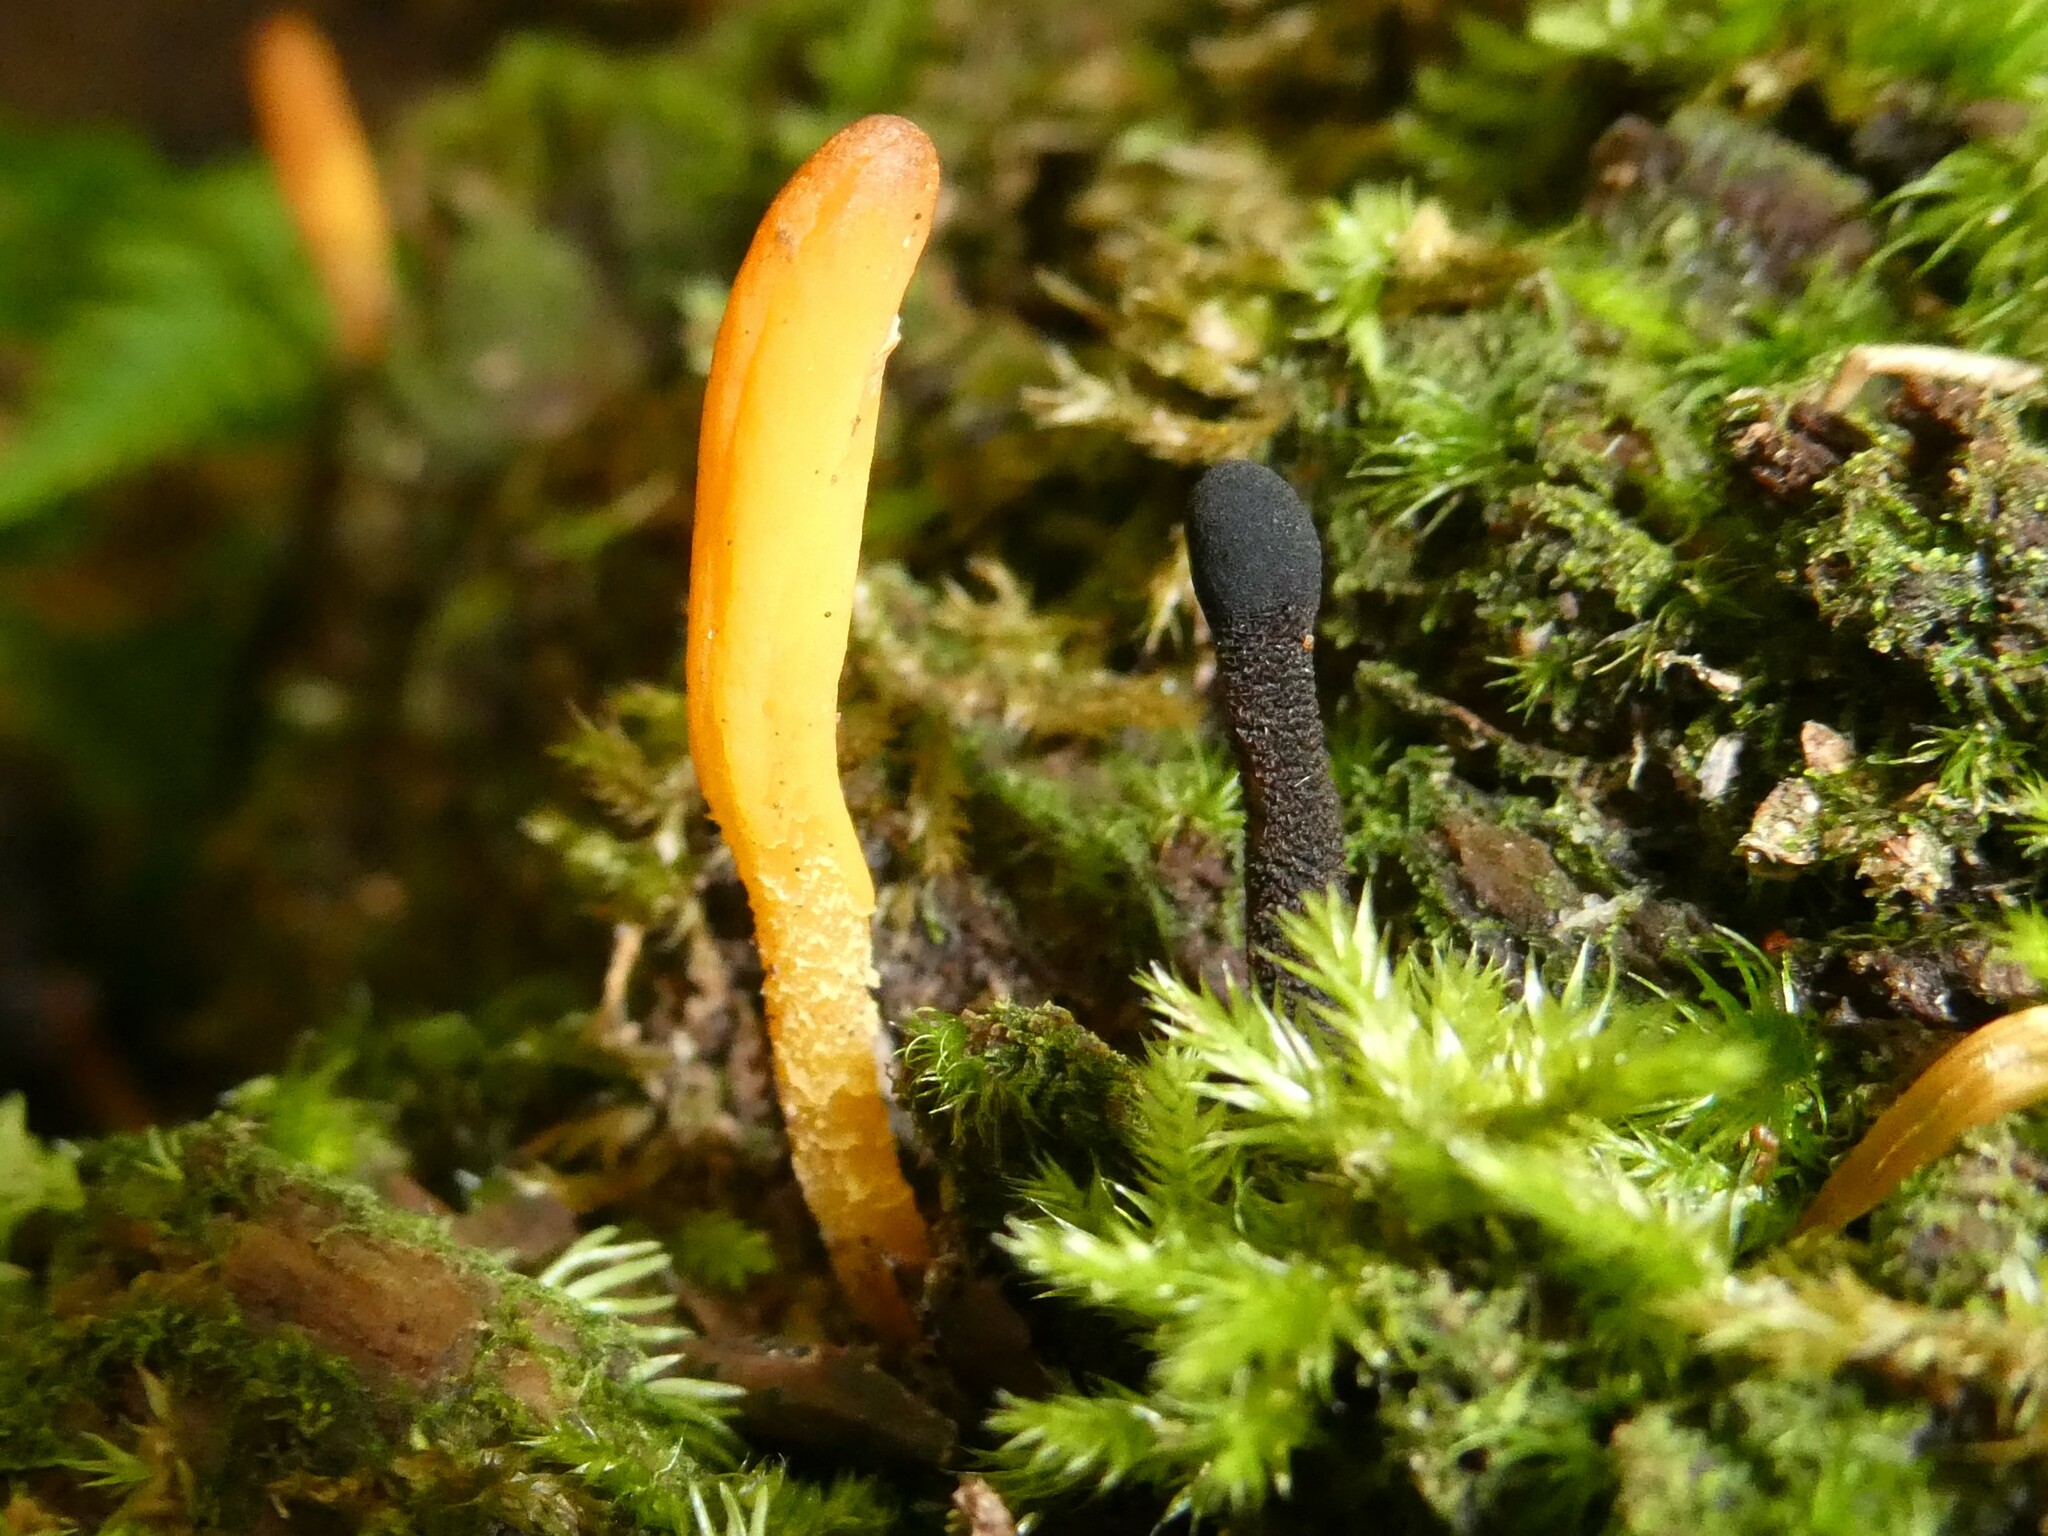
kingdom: Fungi
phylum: Ascomycota
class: Leotiomycetes
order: Leotiales
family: Leotiaceae
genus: Microglossum
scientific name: Microglossum rufum
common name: Orange earthtongue
